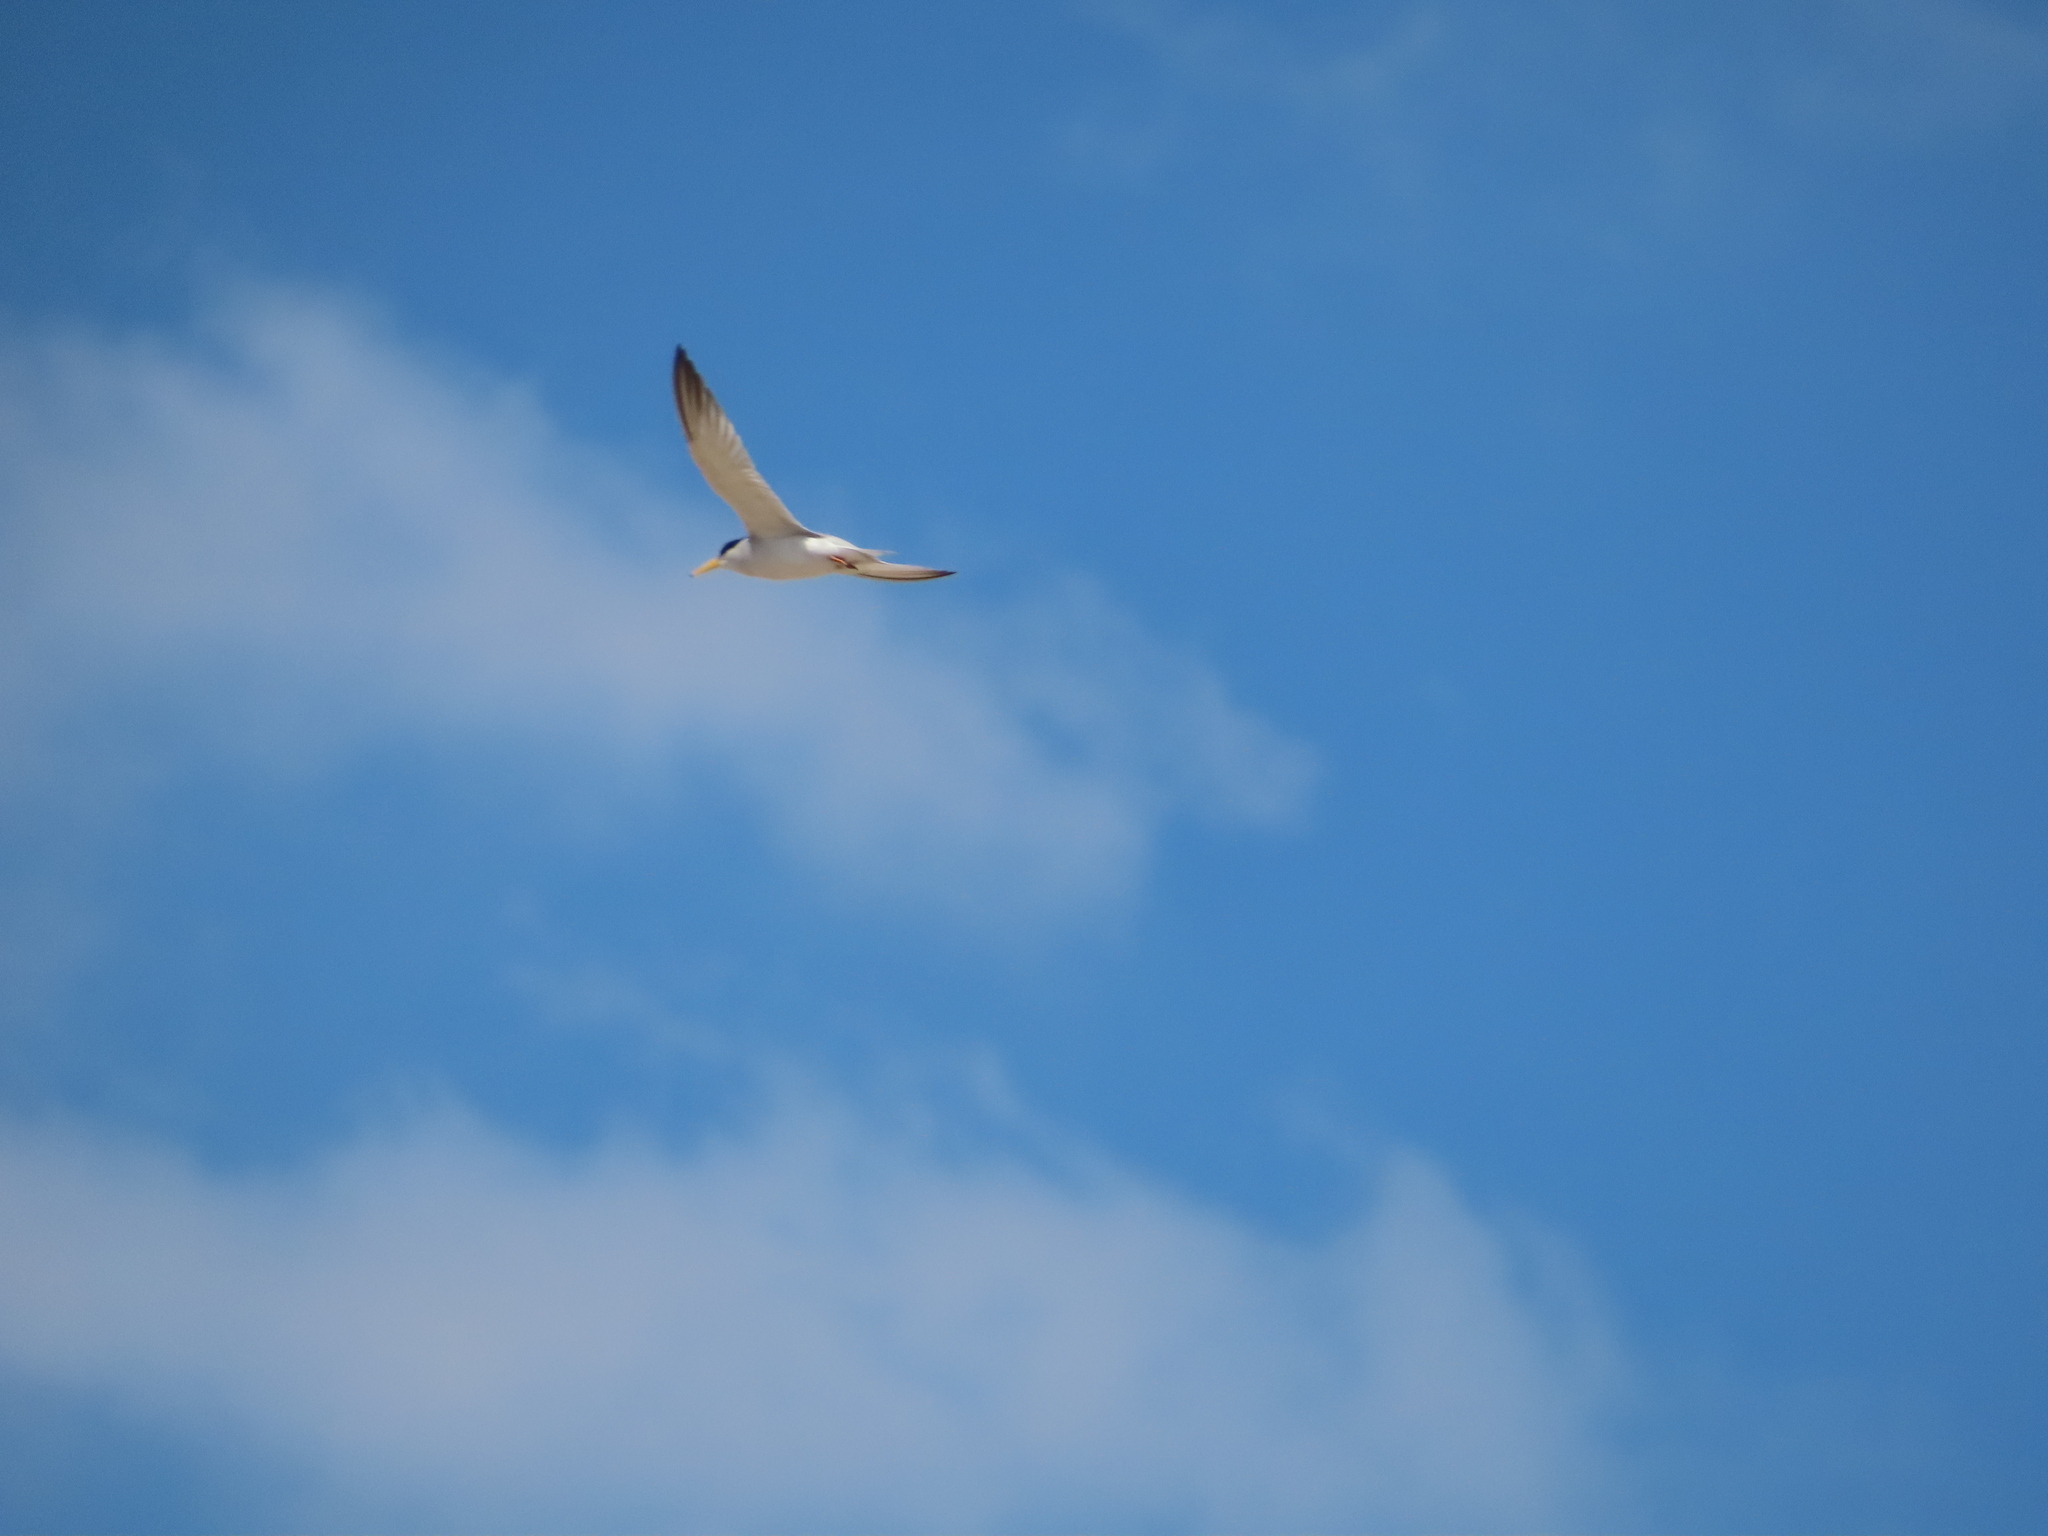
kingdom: Animalia
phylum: Chordata
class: Aves
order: Charadriiformes
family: Laridae
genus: Sternula
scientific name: Sternula antillarum
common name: Least tern
